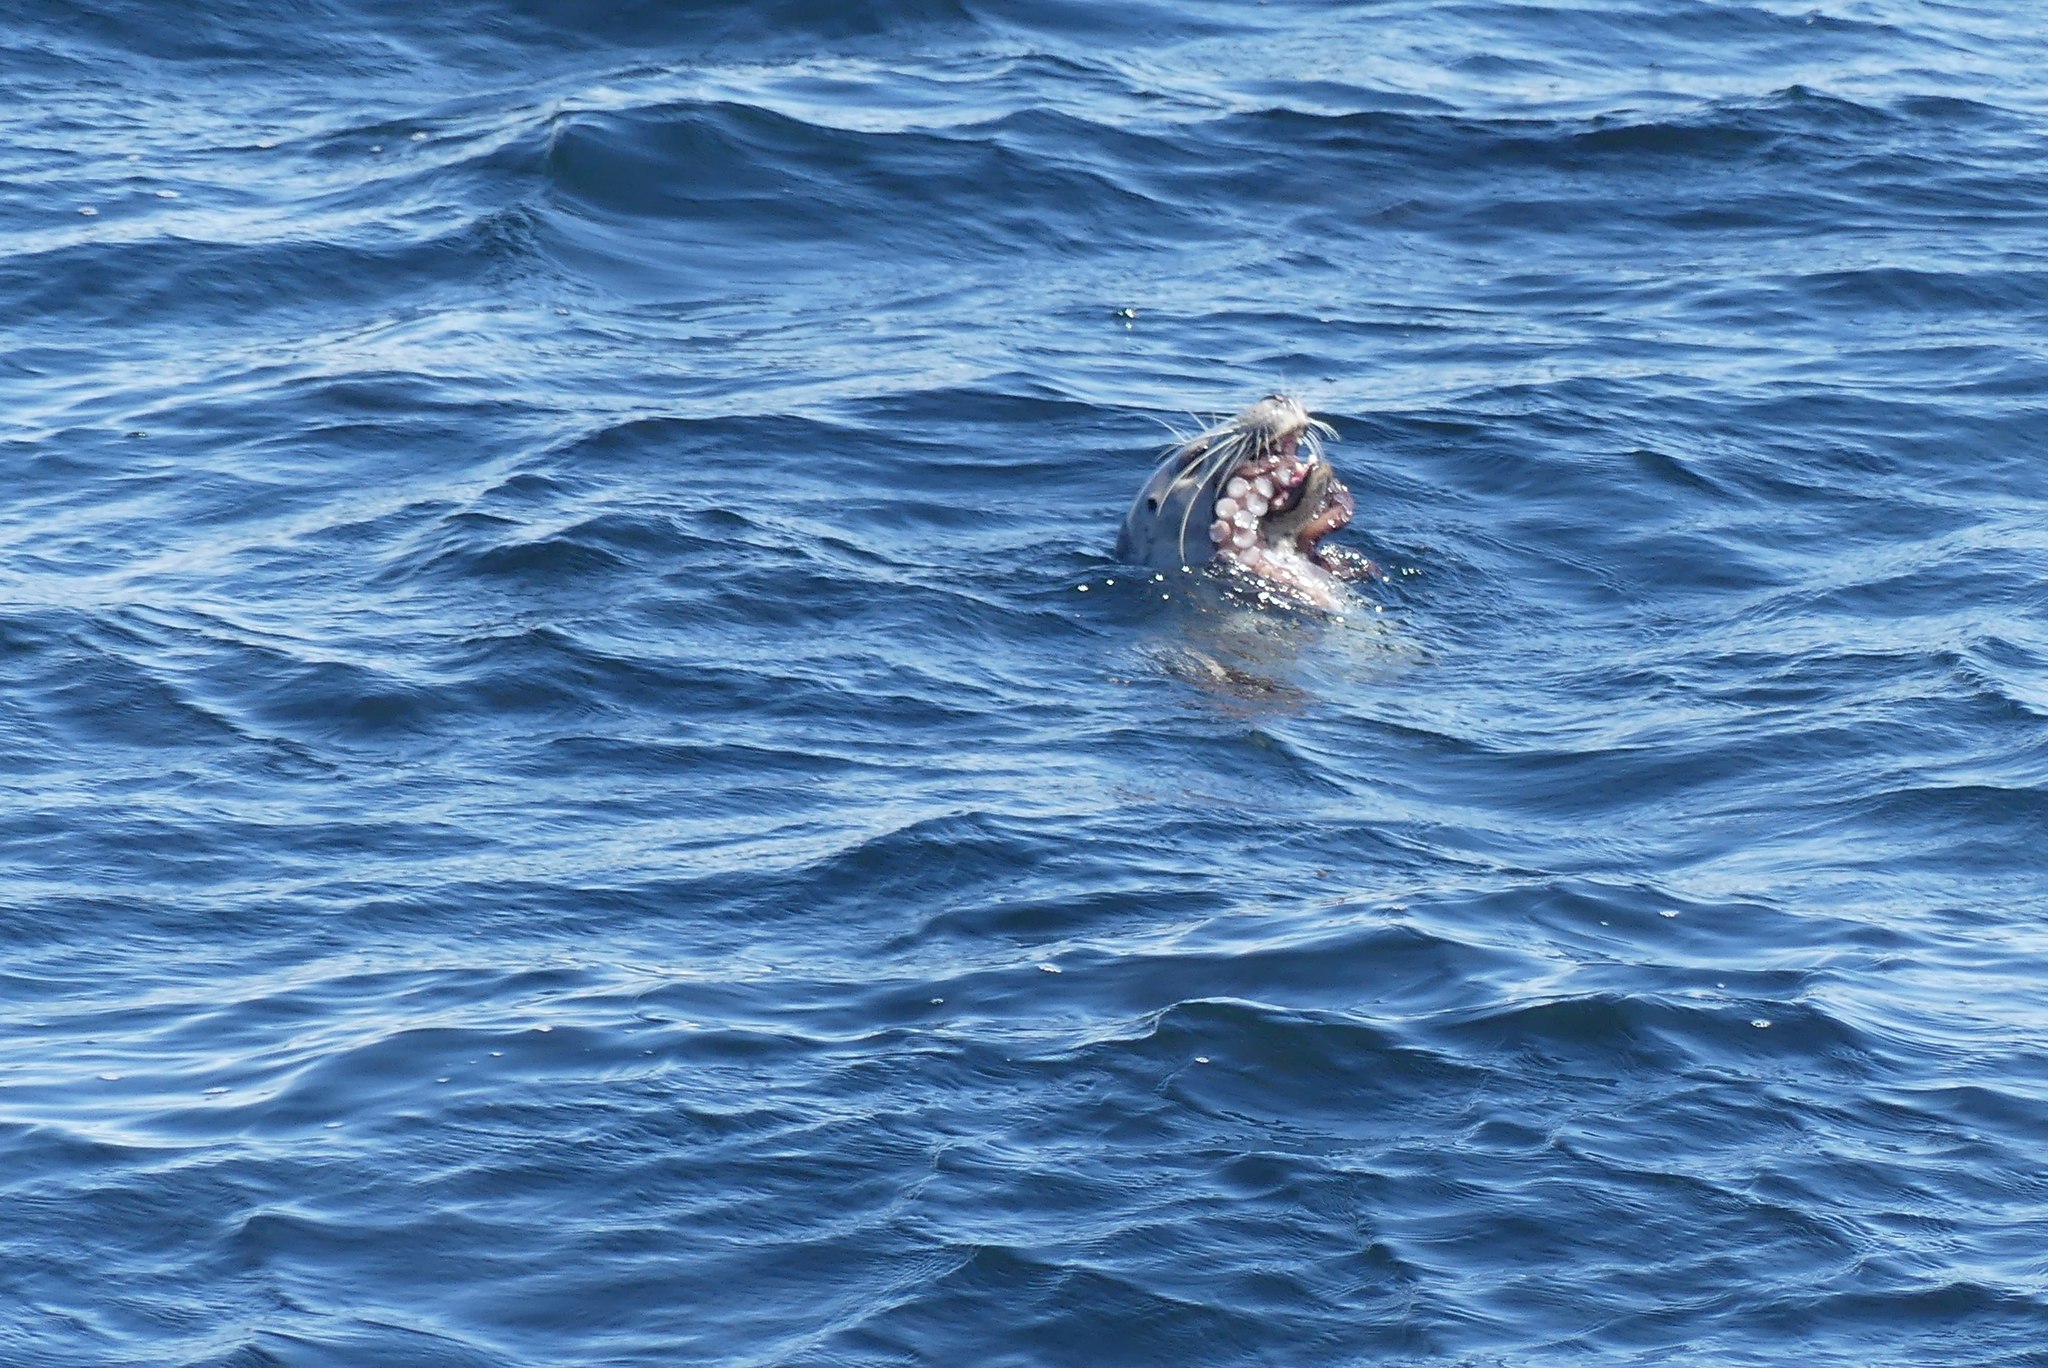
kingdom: Animalia
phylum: Chordata
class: Mammalia
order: Carnivora
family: Phocidae
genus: Phoca
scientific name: Phoca vitulina
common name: Harbor seal
